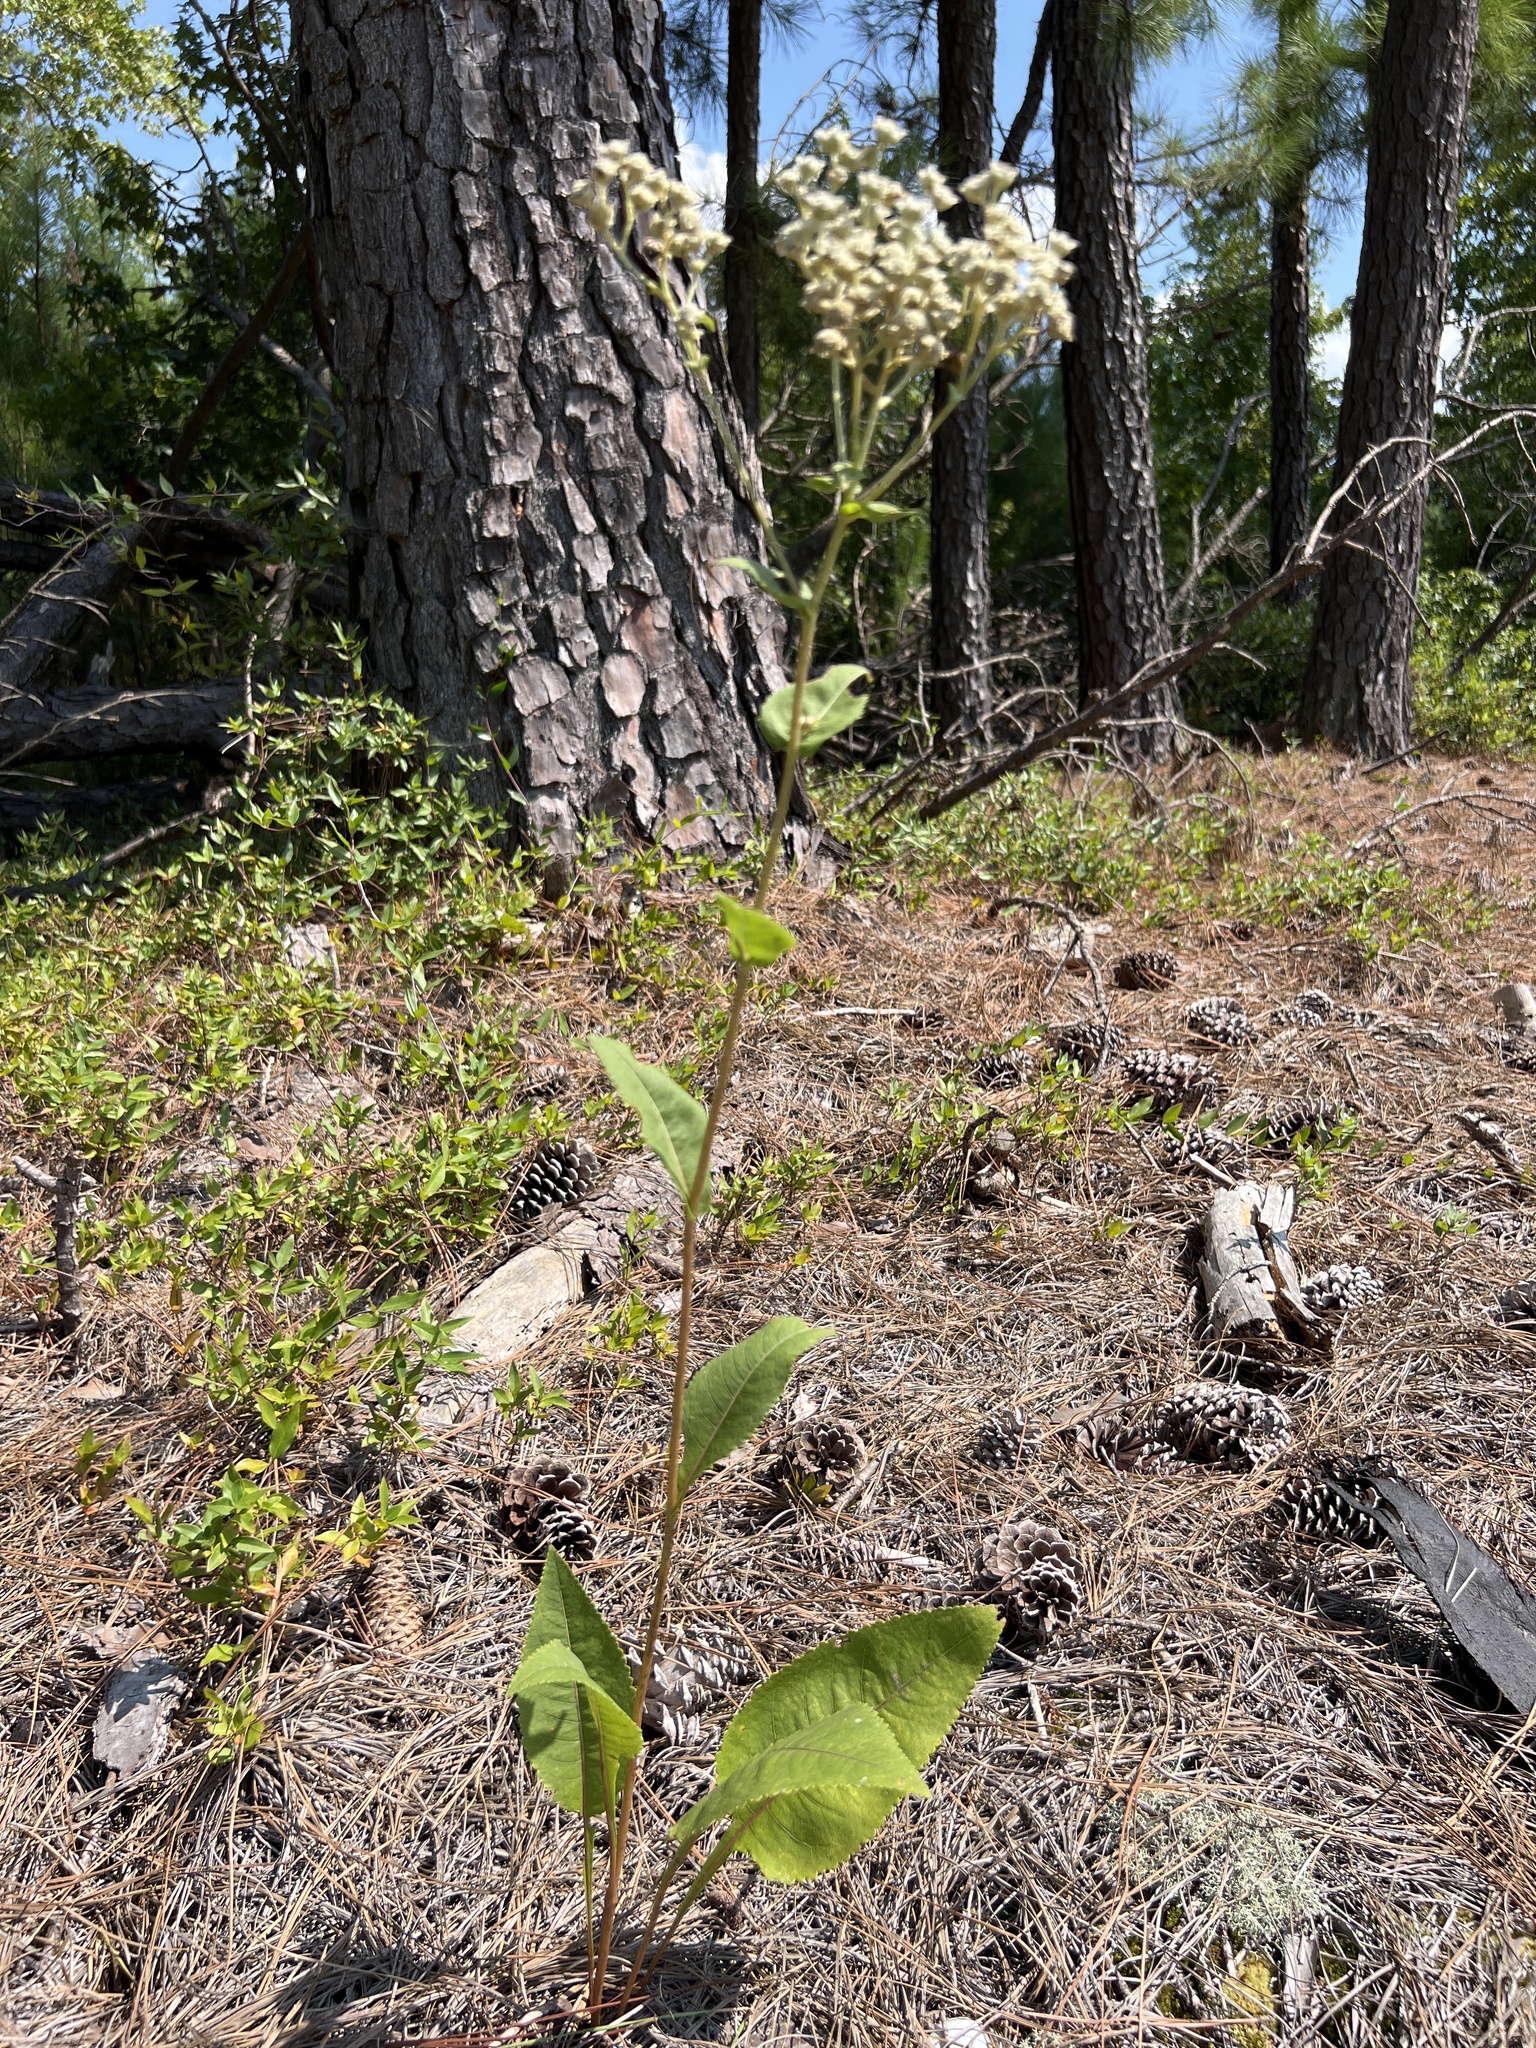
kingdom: Plantae
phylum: Tracheophyta
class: Magnoliopsida
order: Asterales
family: Asteraceae
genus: Parthenium
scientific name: Parthenium integrifolium
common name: American feverfew
